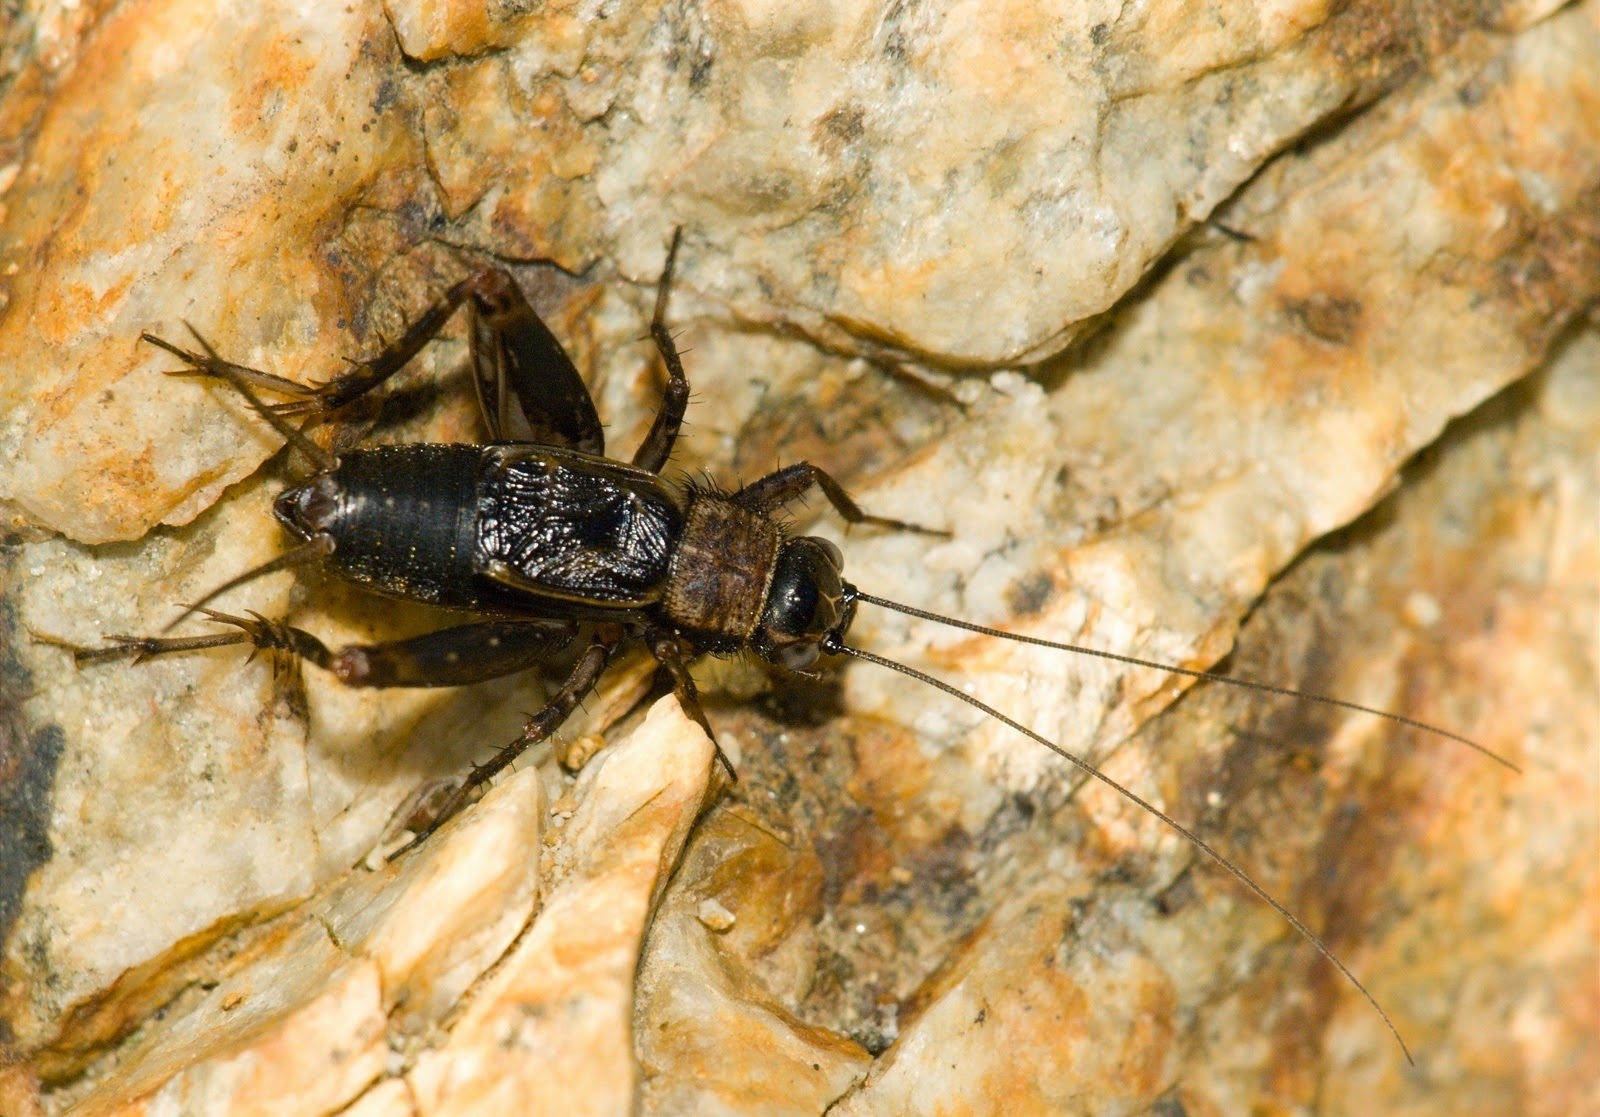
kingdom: Animalia
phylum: Arthropoda
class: Insecta
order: Orthoptera
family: Trigonidiidae
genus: Nemobius
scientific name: Nemobius sylvestris
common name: Wood-cricket
